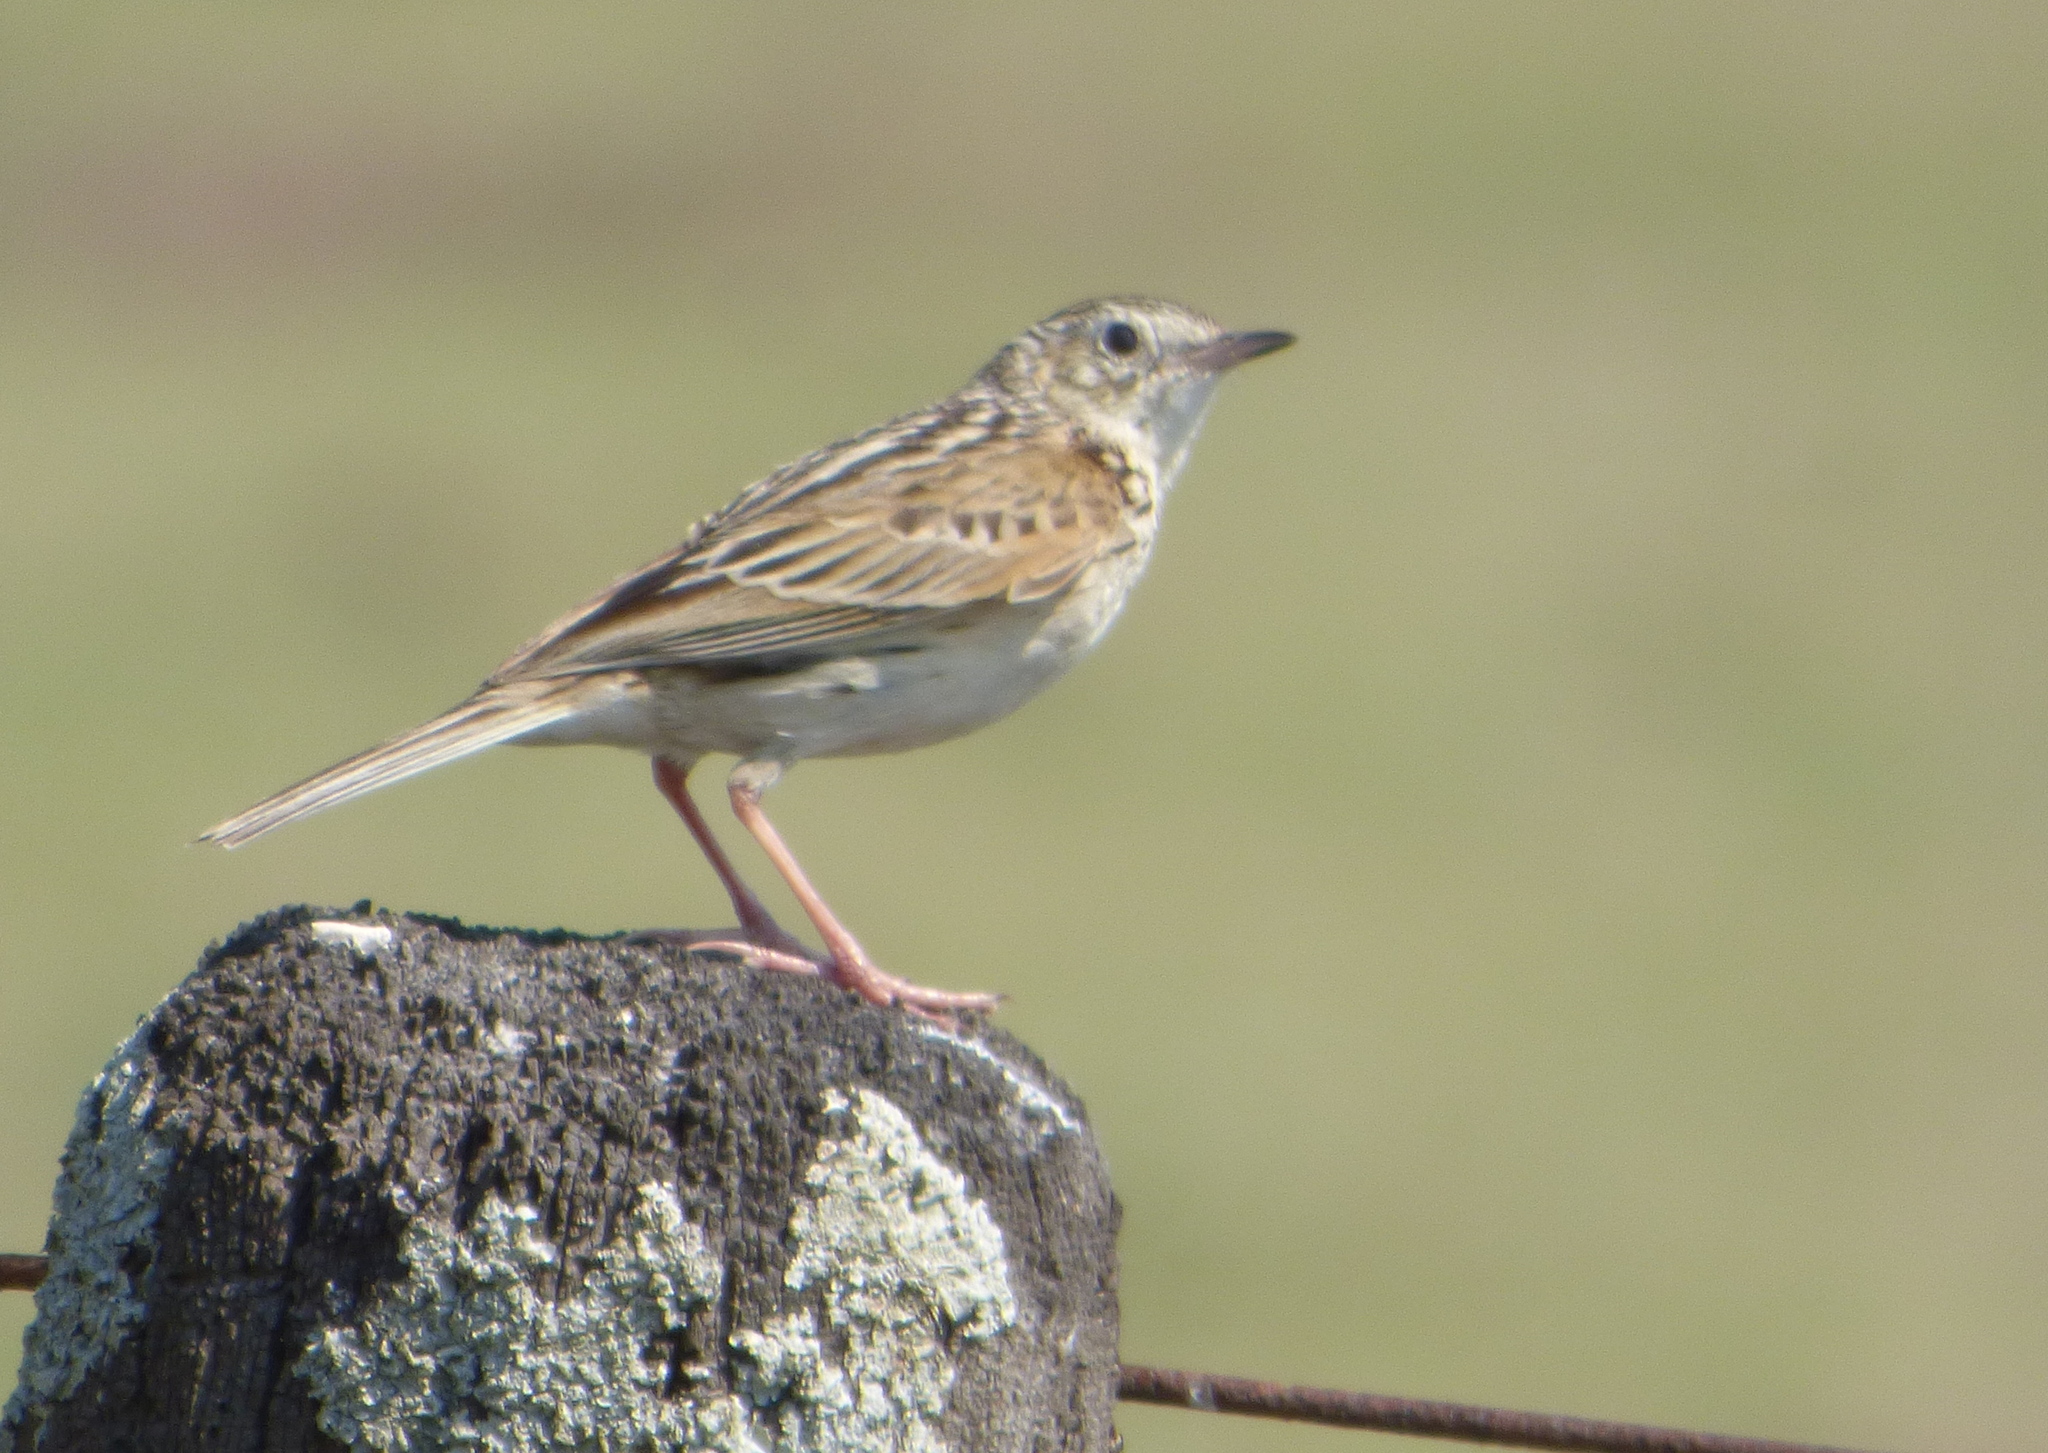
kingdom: Animalia
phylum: Chordata
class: Aves
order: Passeriformes
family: Motacillidae
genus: Anthus
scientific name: Anthus hellmayri
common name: Hellmayr's pipit
